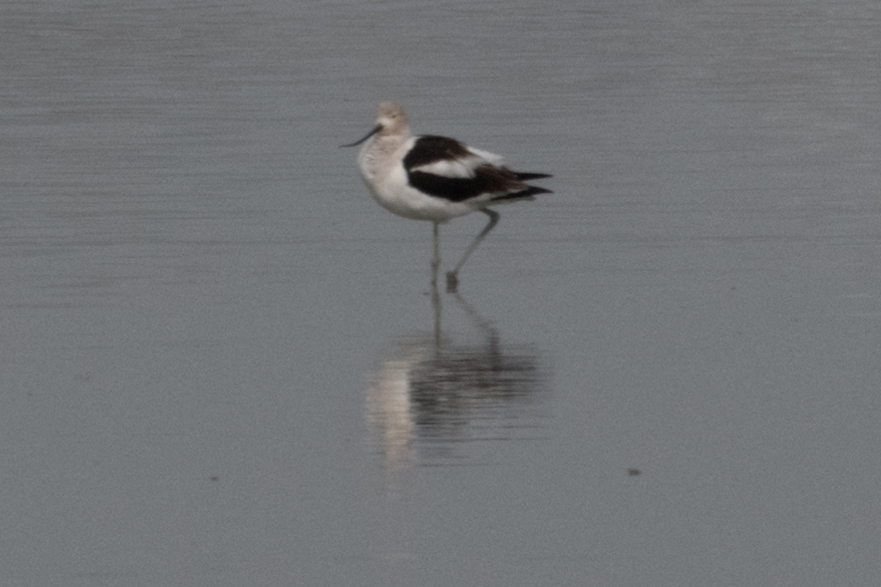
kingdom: Animalia
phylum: Chordata
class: Aves
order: Charadriiformes
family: Recurvirostridae
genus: Recurvirostra
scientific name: Recurvirostra americana
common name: American avocet
